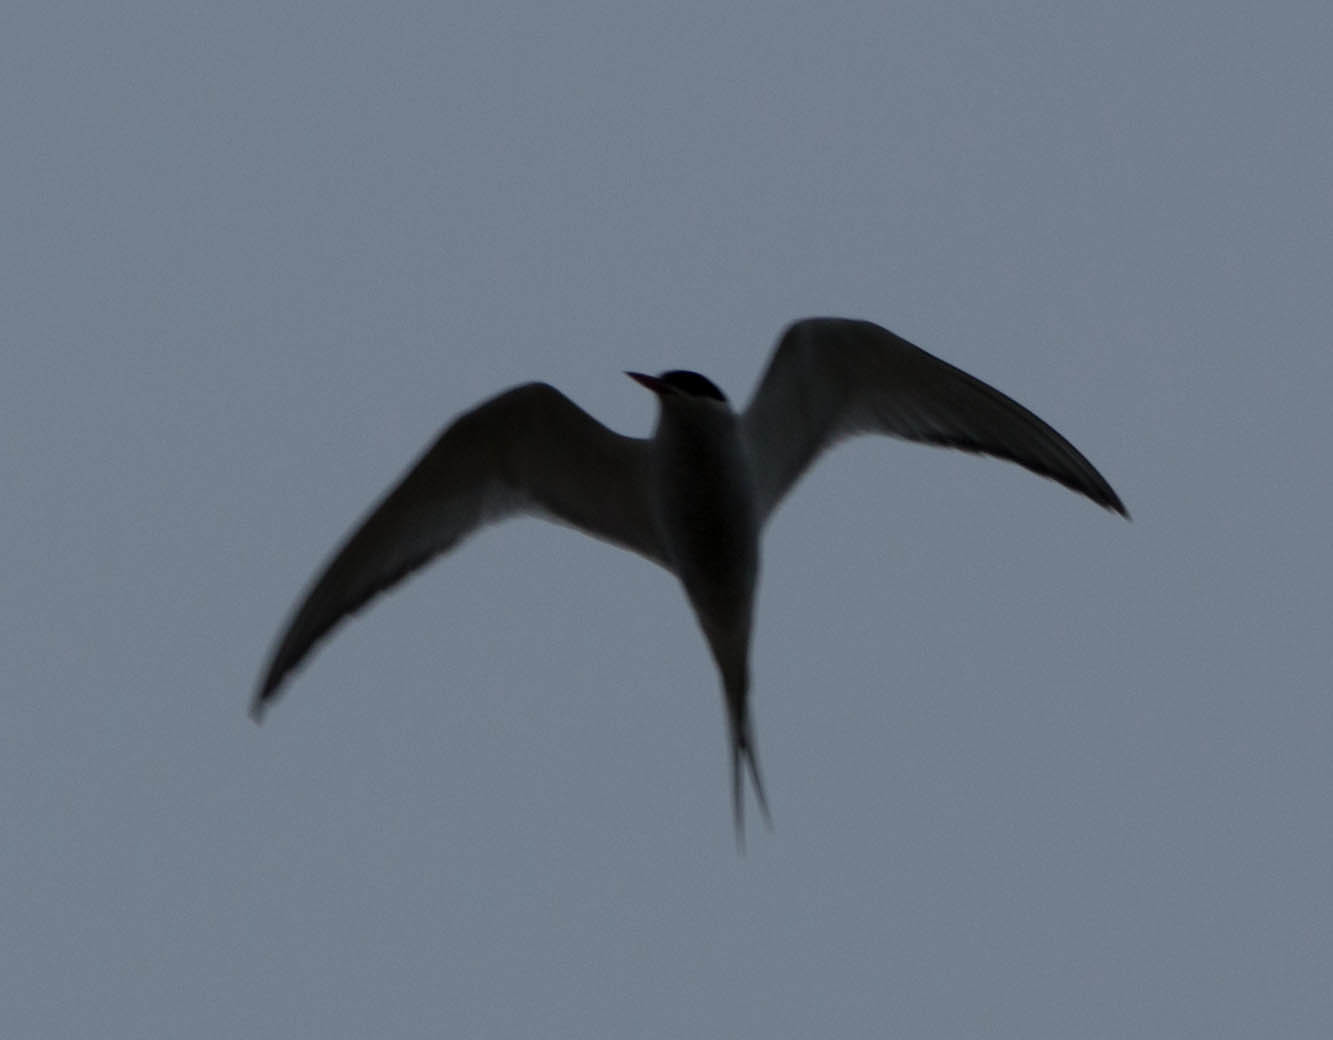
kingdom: Animalia
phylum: Chordata
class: Aves
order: Charadriiformes
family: Laridae
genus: Sterna
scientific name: Sterna paradisaea
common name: Arctic tern
